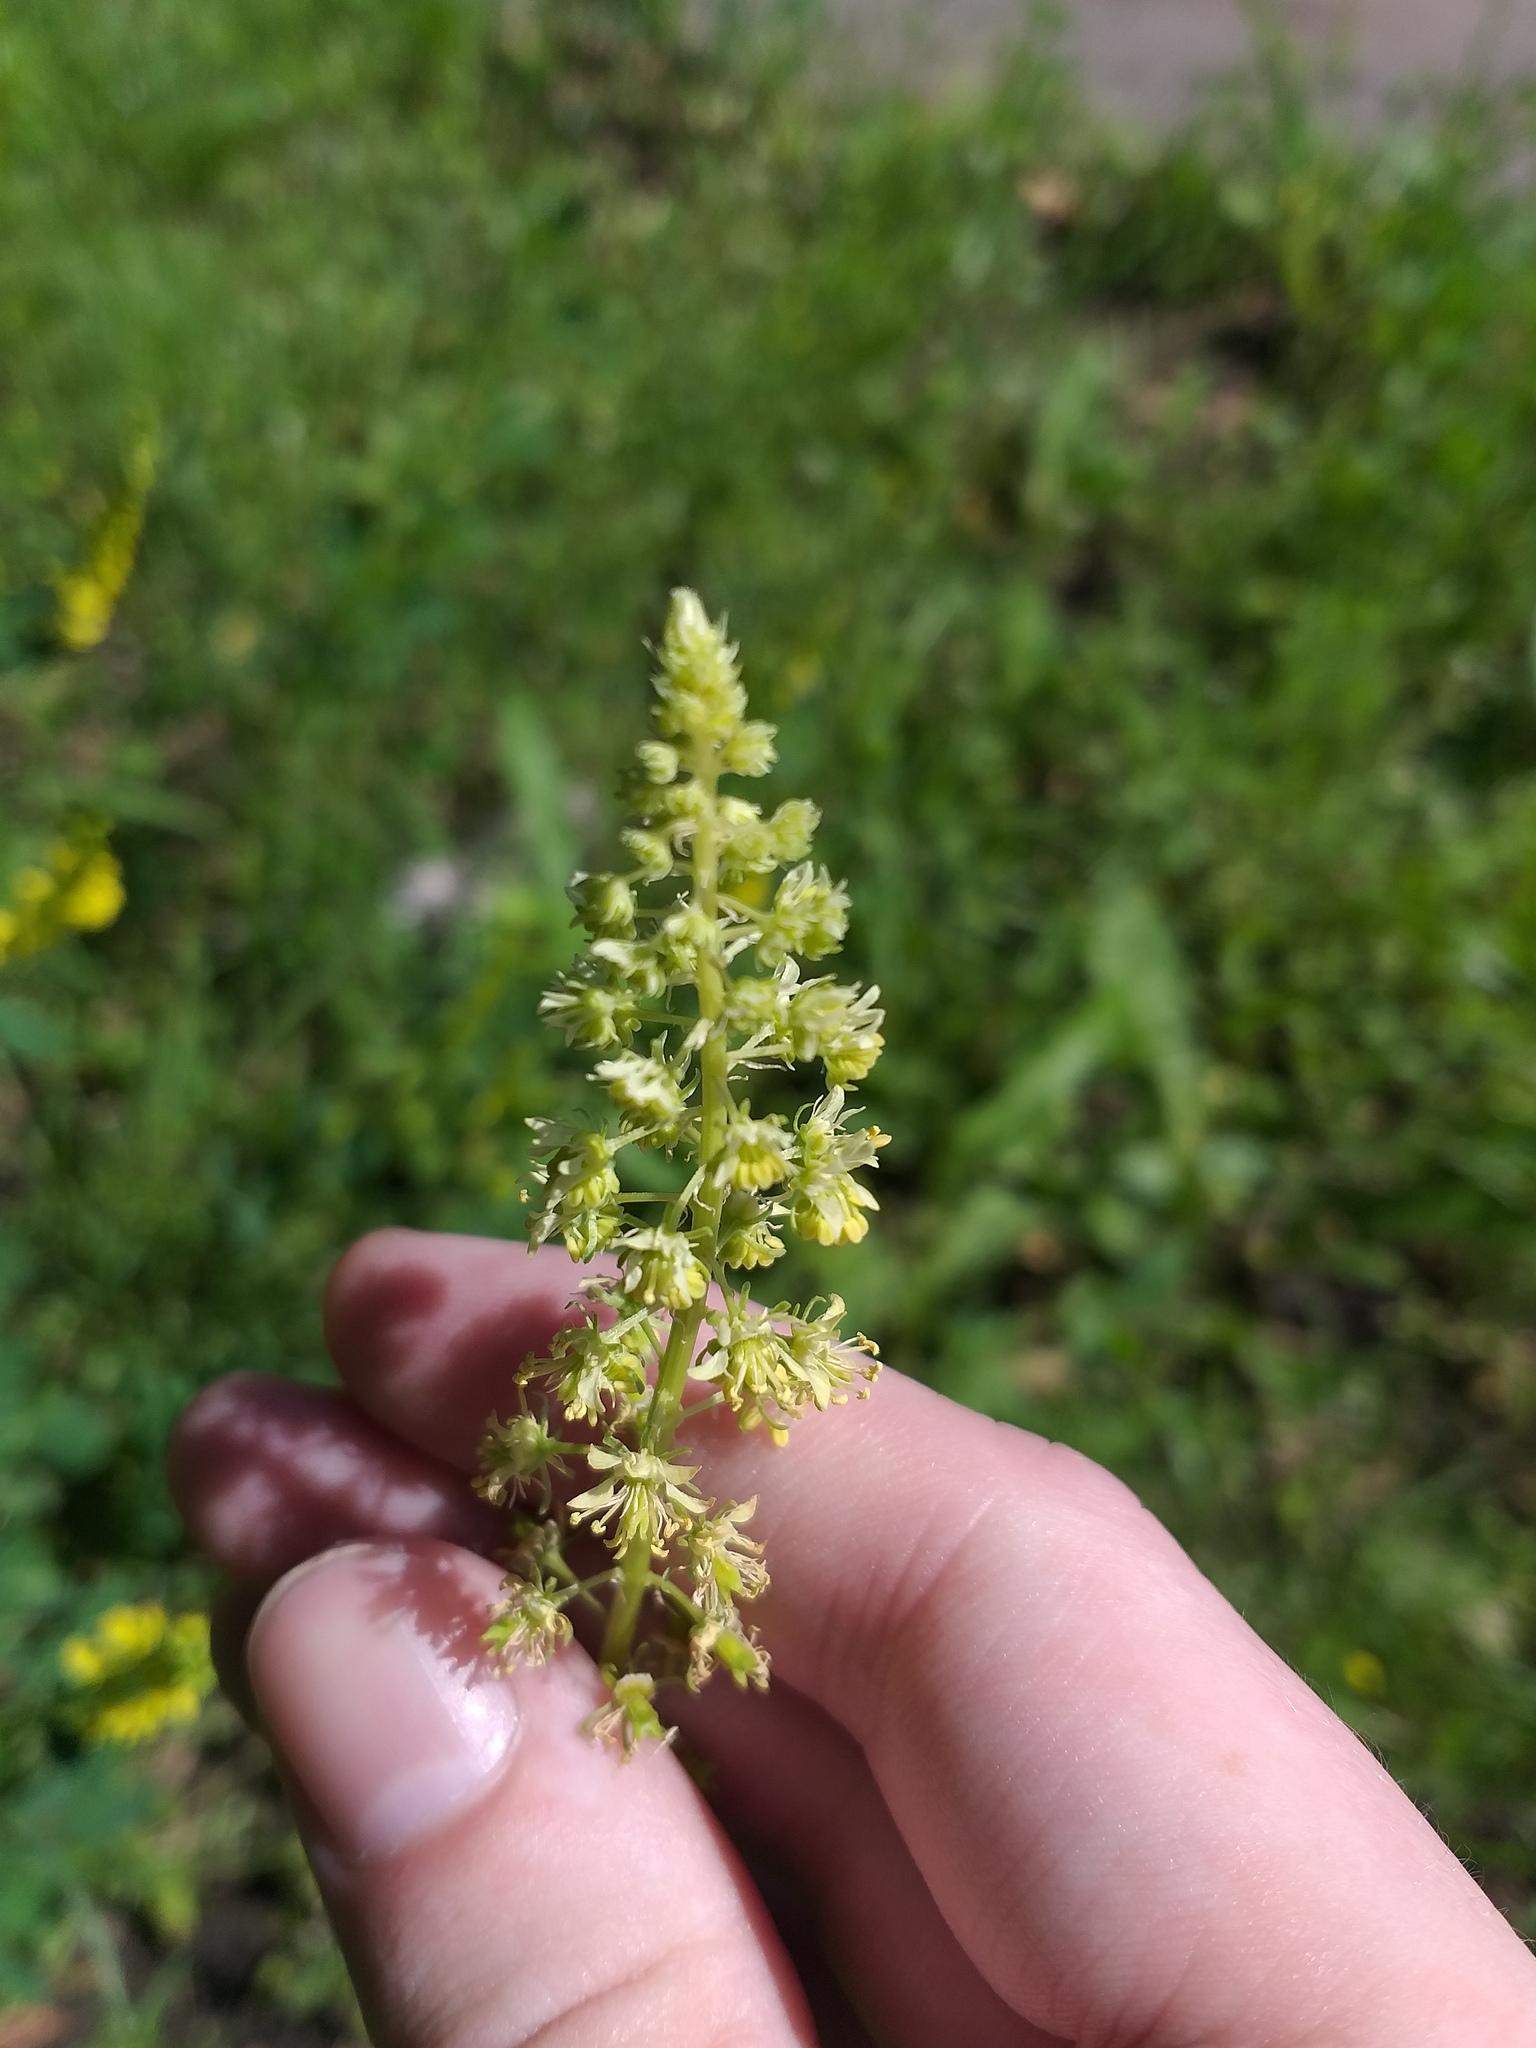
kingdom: Plantae
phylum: Tracheophyta
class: Magnoliopsida
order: Brassicales
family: Resedaceae
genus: Reseda
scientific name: Reseda lutea
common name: Wild mignonette
